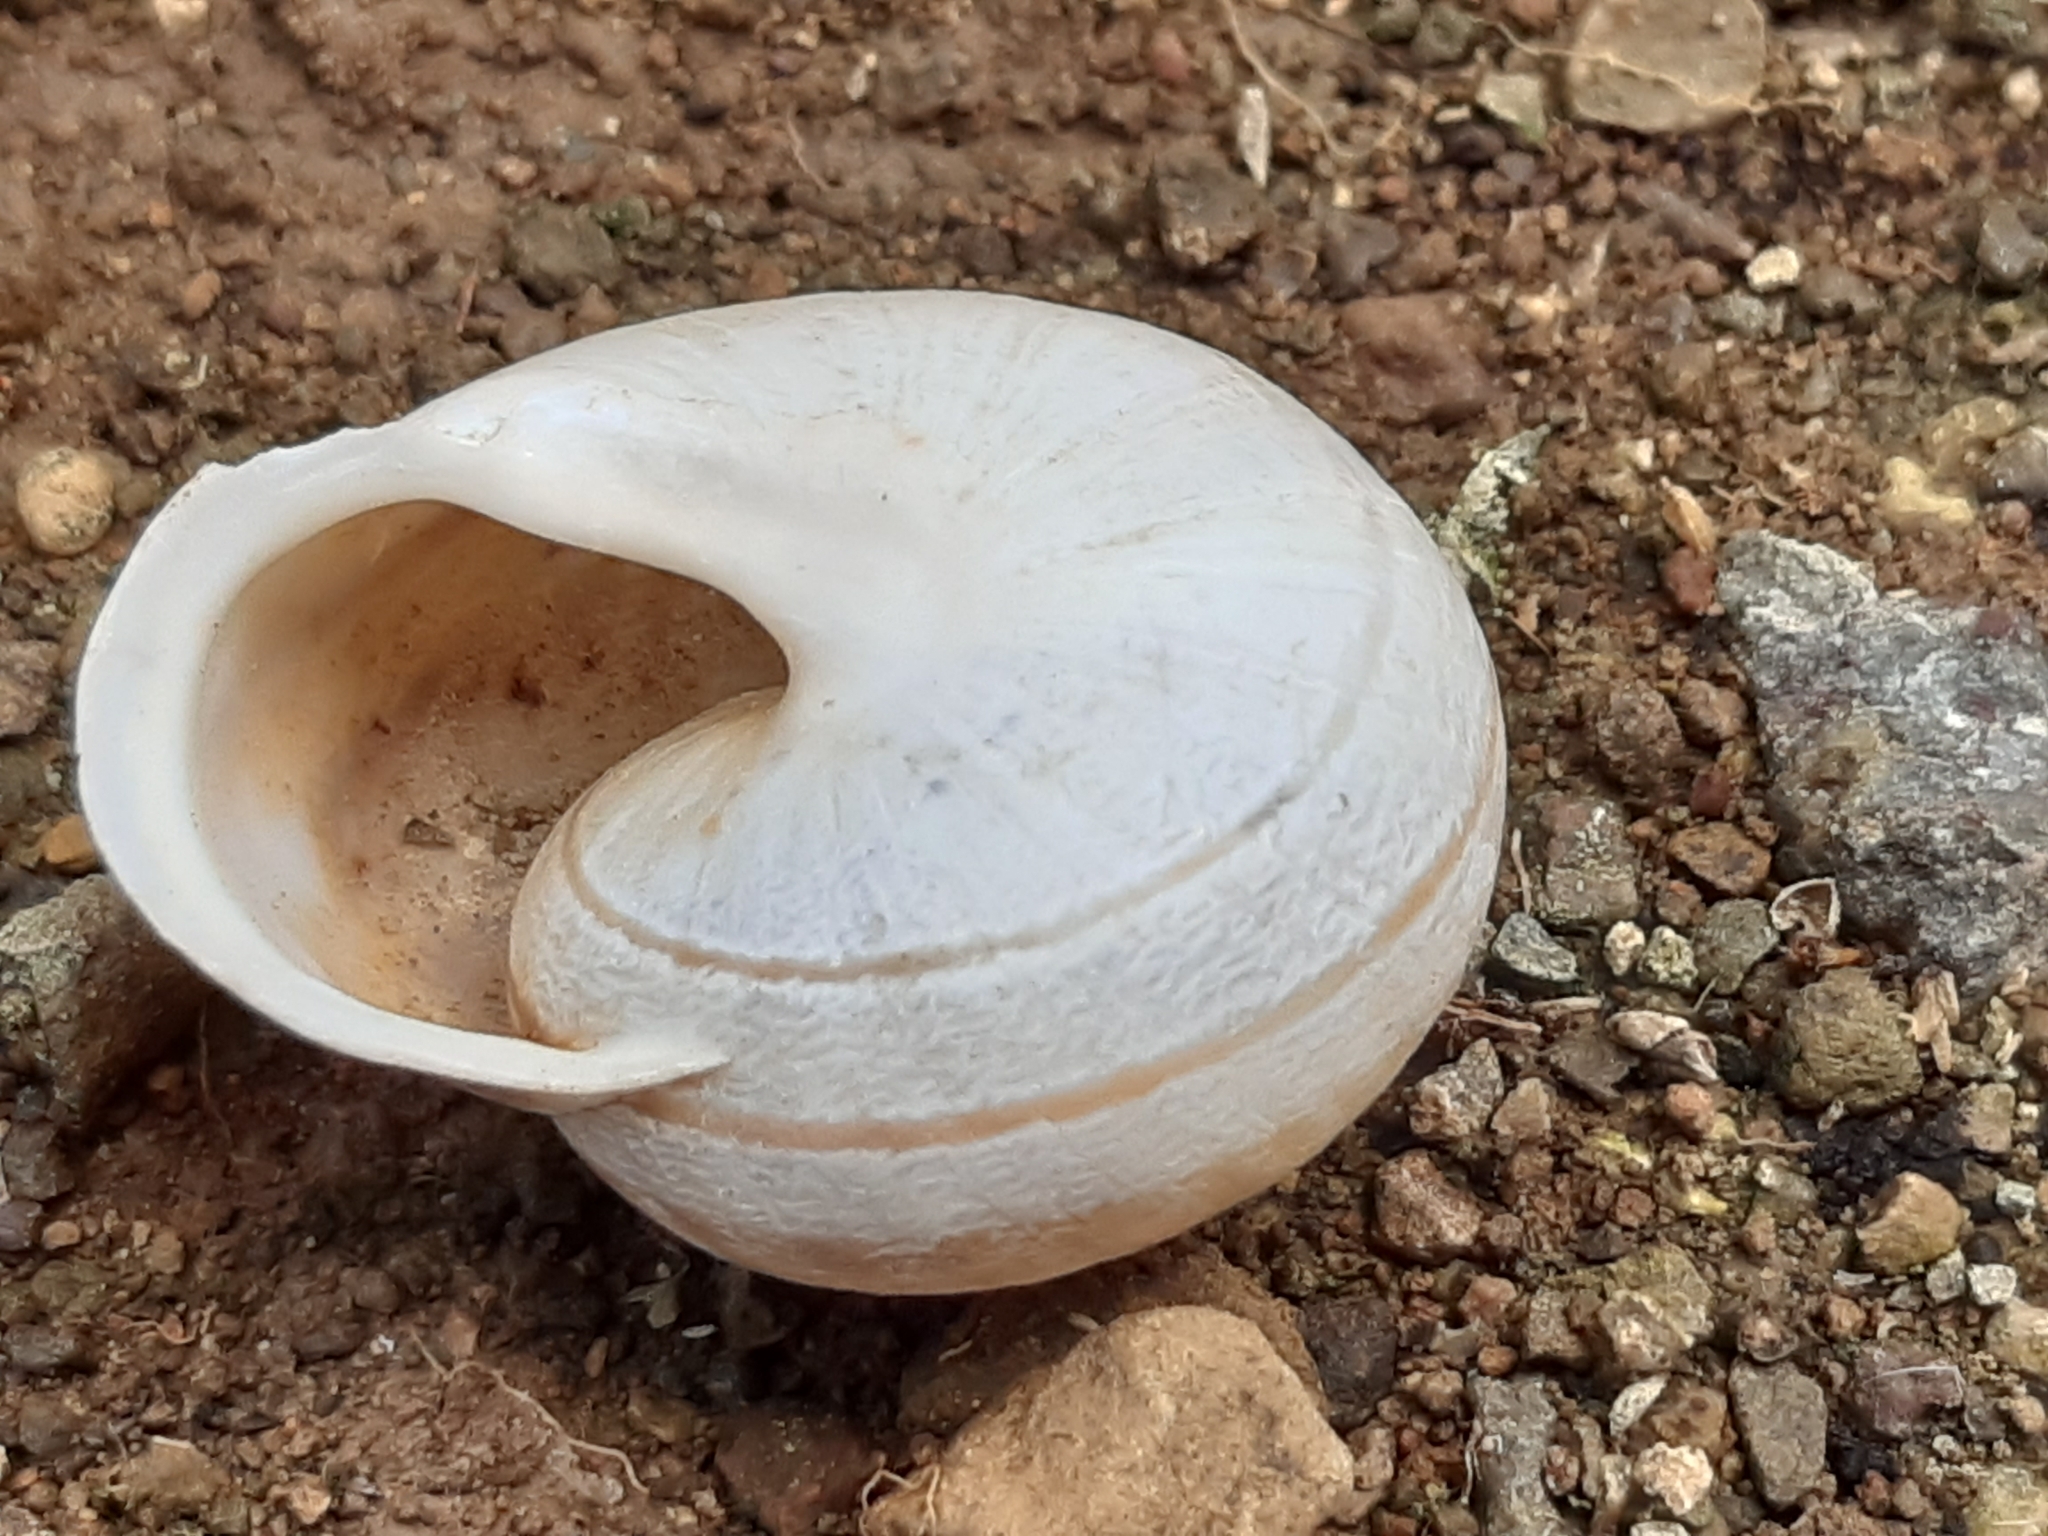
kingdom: Animalia
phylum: Mollusca
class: Gastropoda
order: Stylommatophora
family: Helicidae
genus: Eobania
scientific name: Eobania vermiculata
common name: Chocolateband snail
